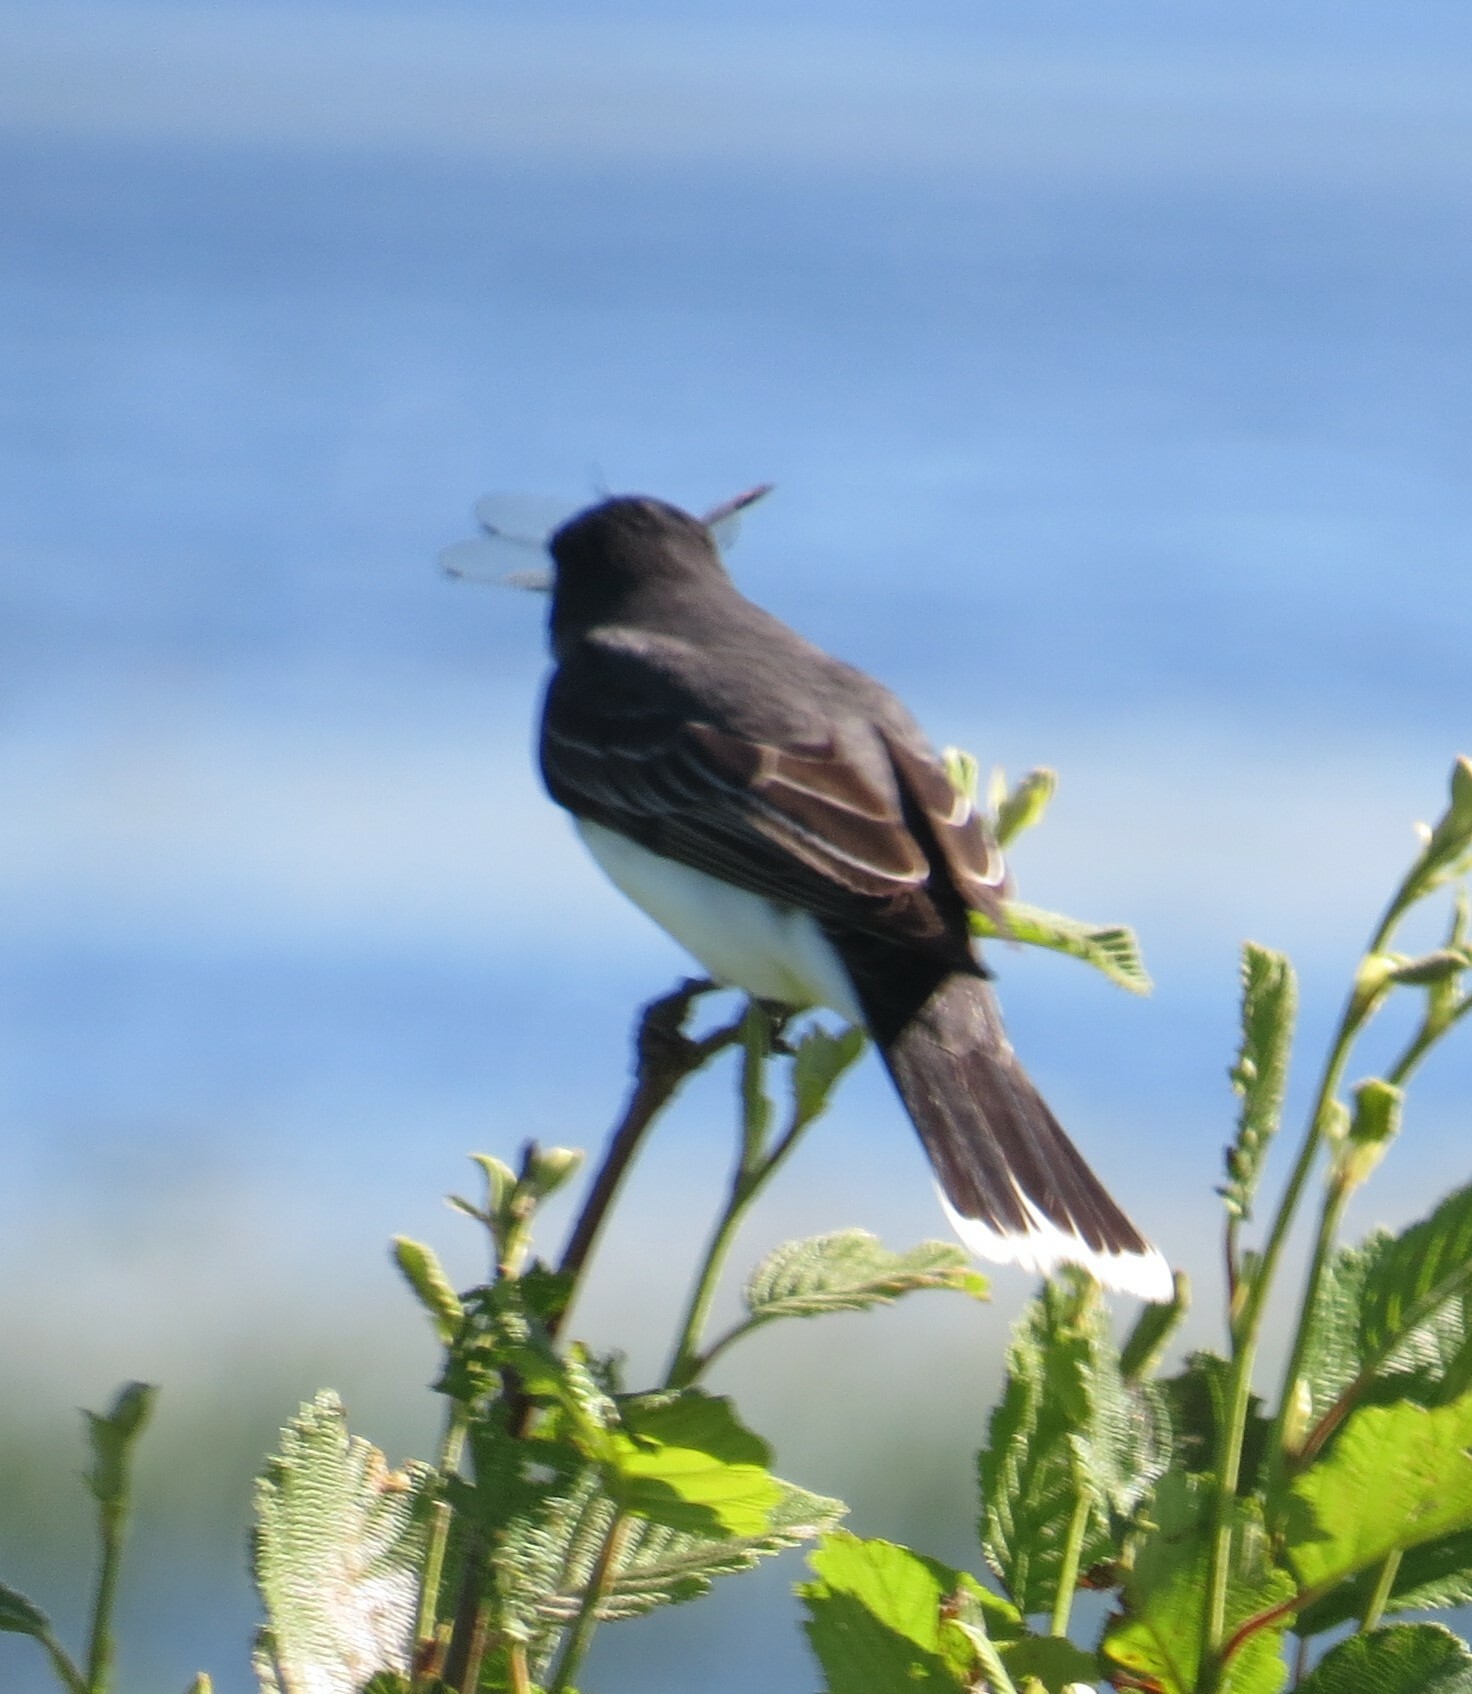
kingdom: Animalia
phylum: Chordata
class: Aves
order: Passeriformes
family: Tyrannidae
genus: Tyrannus
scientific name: Tyrannus tyrannus
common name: Eastern kingbird
